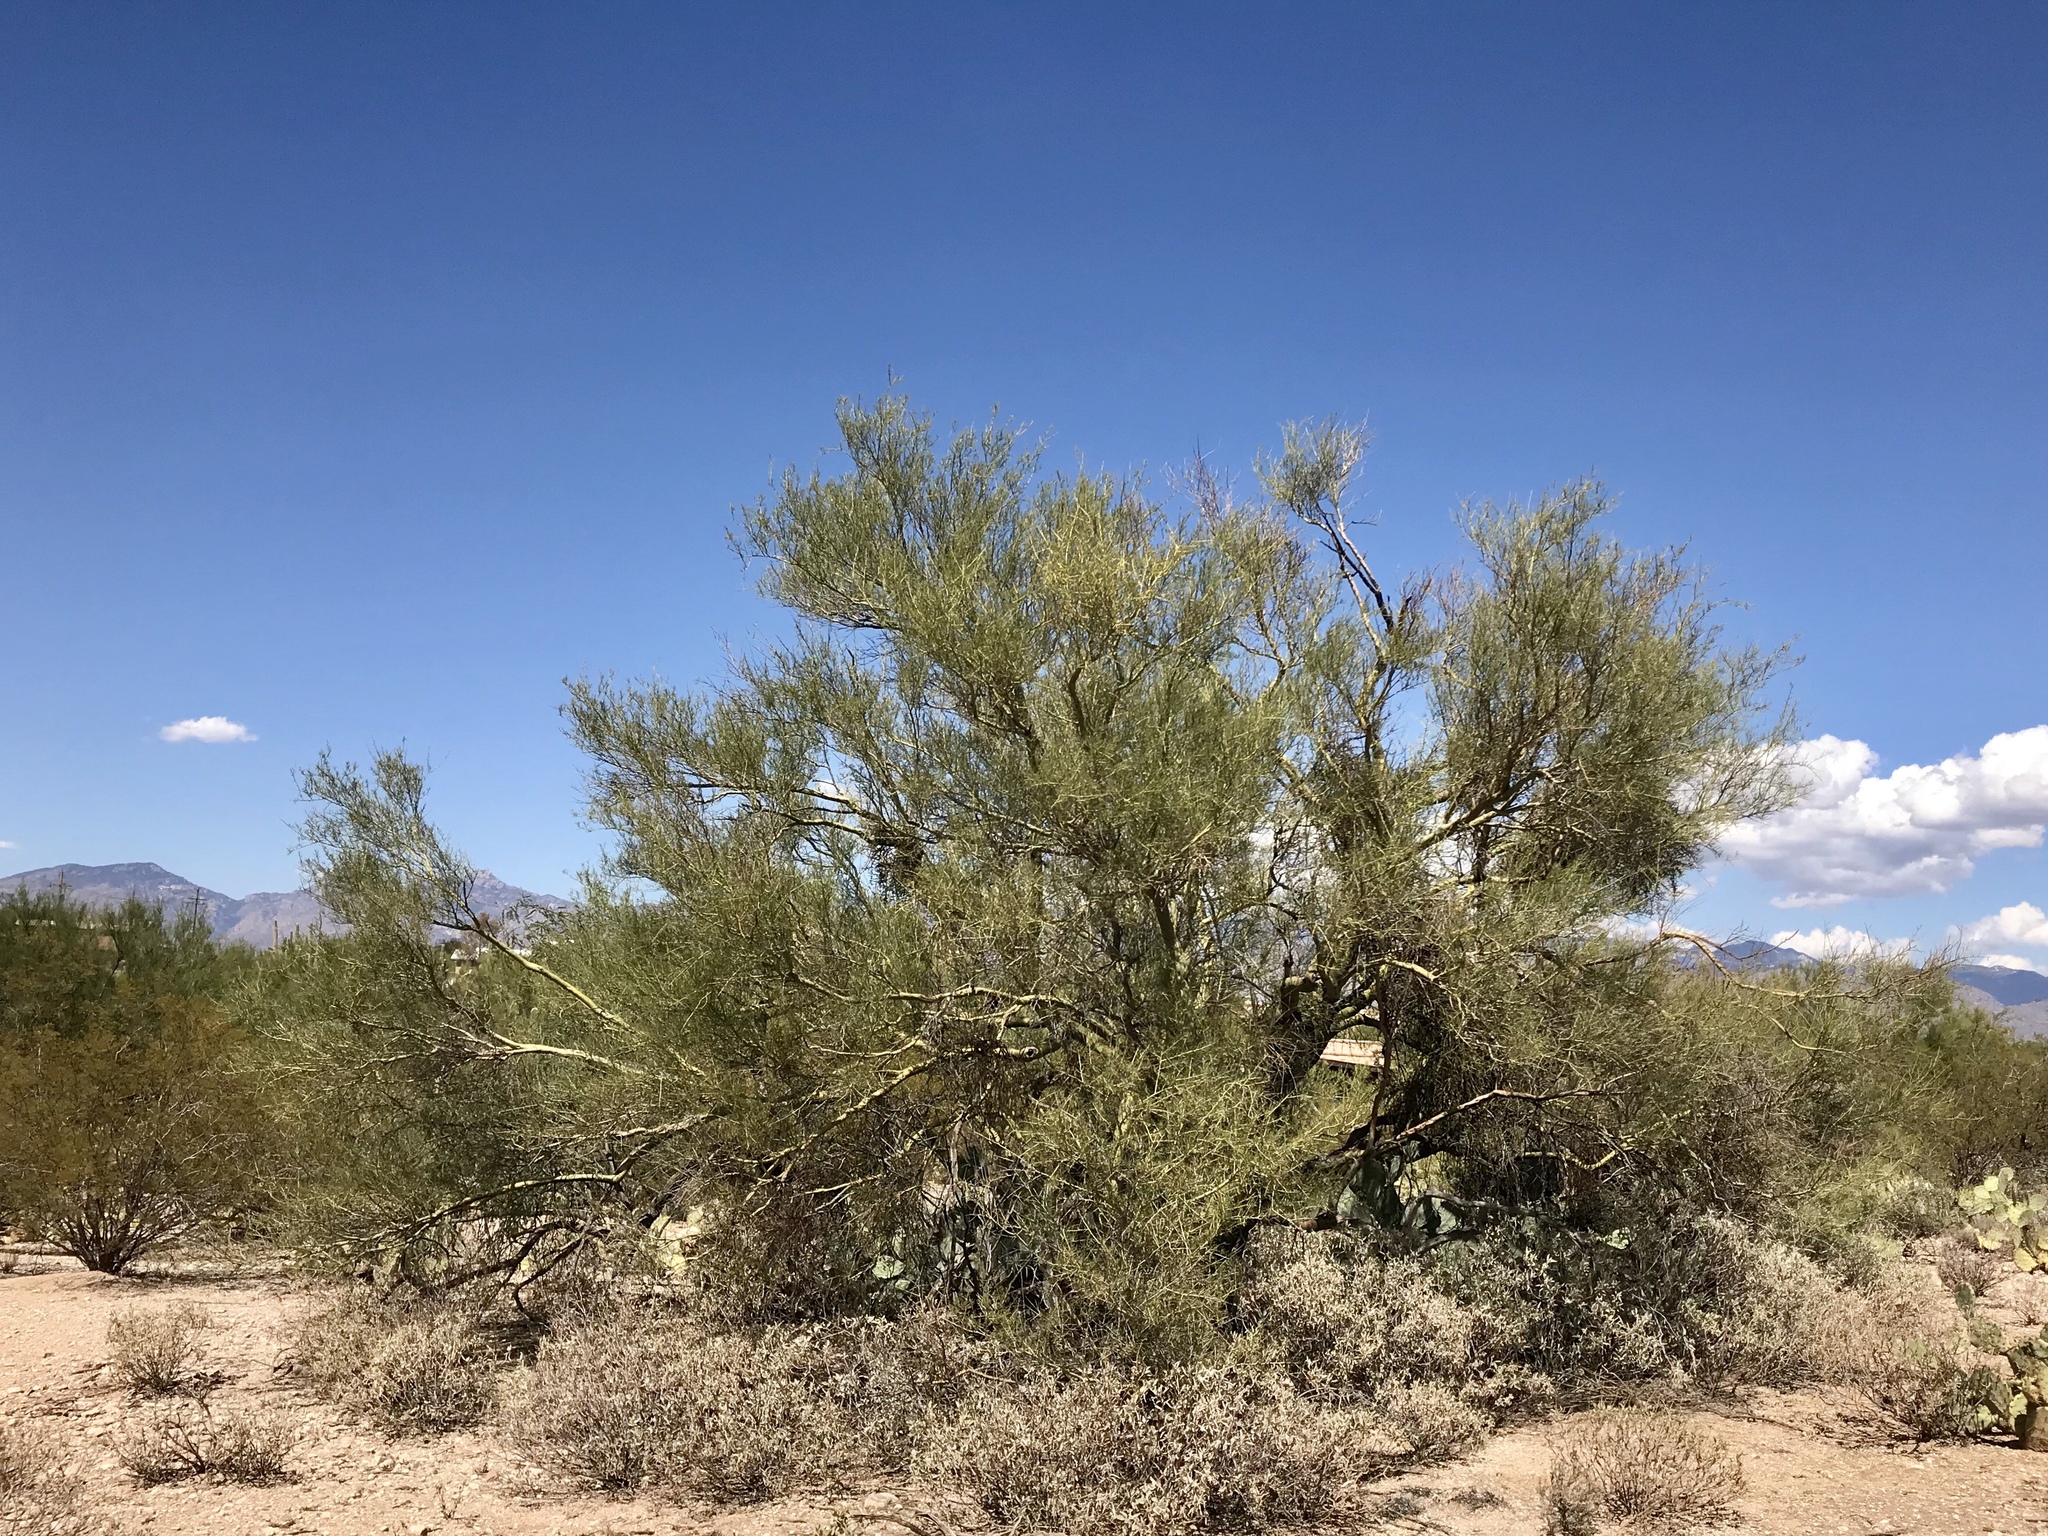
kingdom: Plantae
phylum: Tracheophyta
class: Magnoliopsida
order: Fabales
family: Fabaceae
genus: Parkinsonia
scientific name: Parkinsonia florida
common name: Blue paloverde
